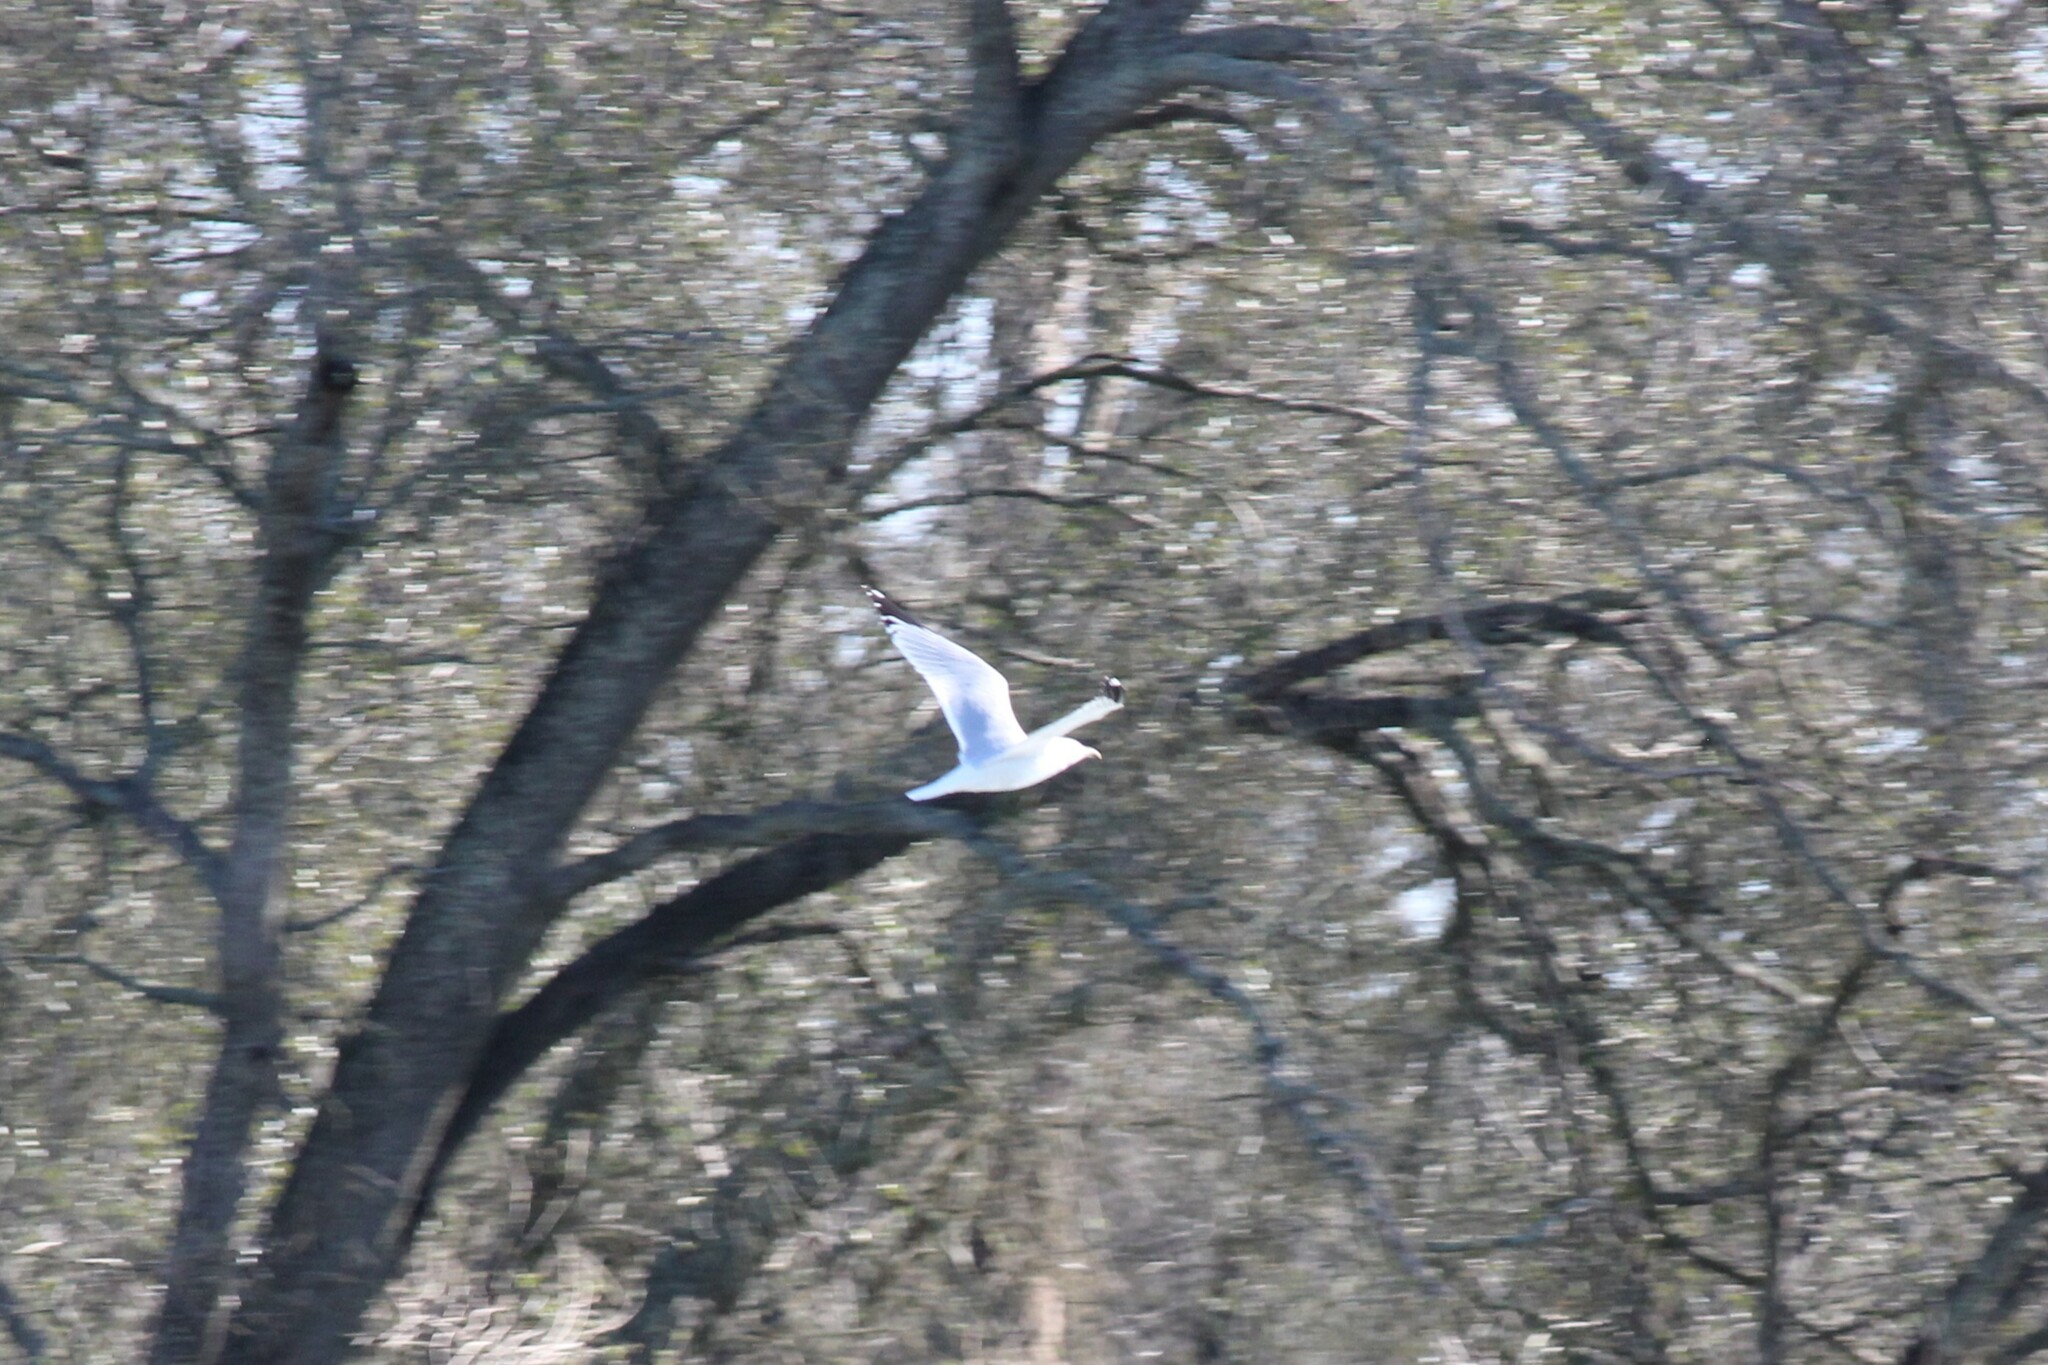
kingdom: Animalia
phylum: Chordata
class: Aves
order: Charadriiformes
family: Laridae
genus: Larus
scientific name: Larus
